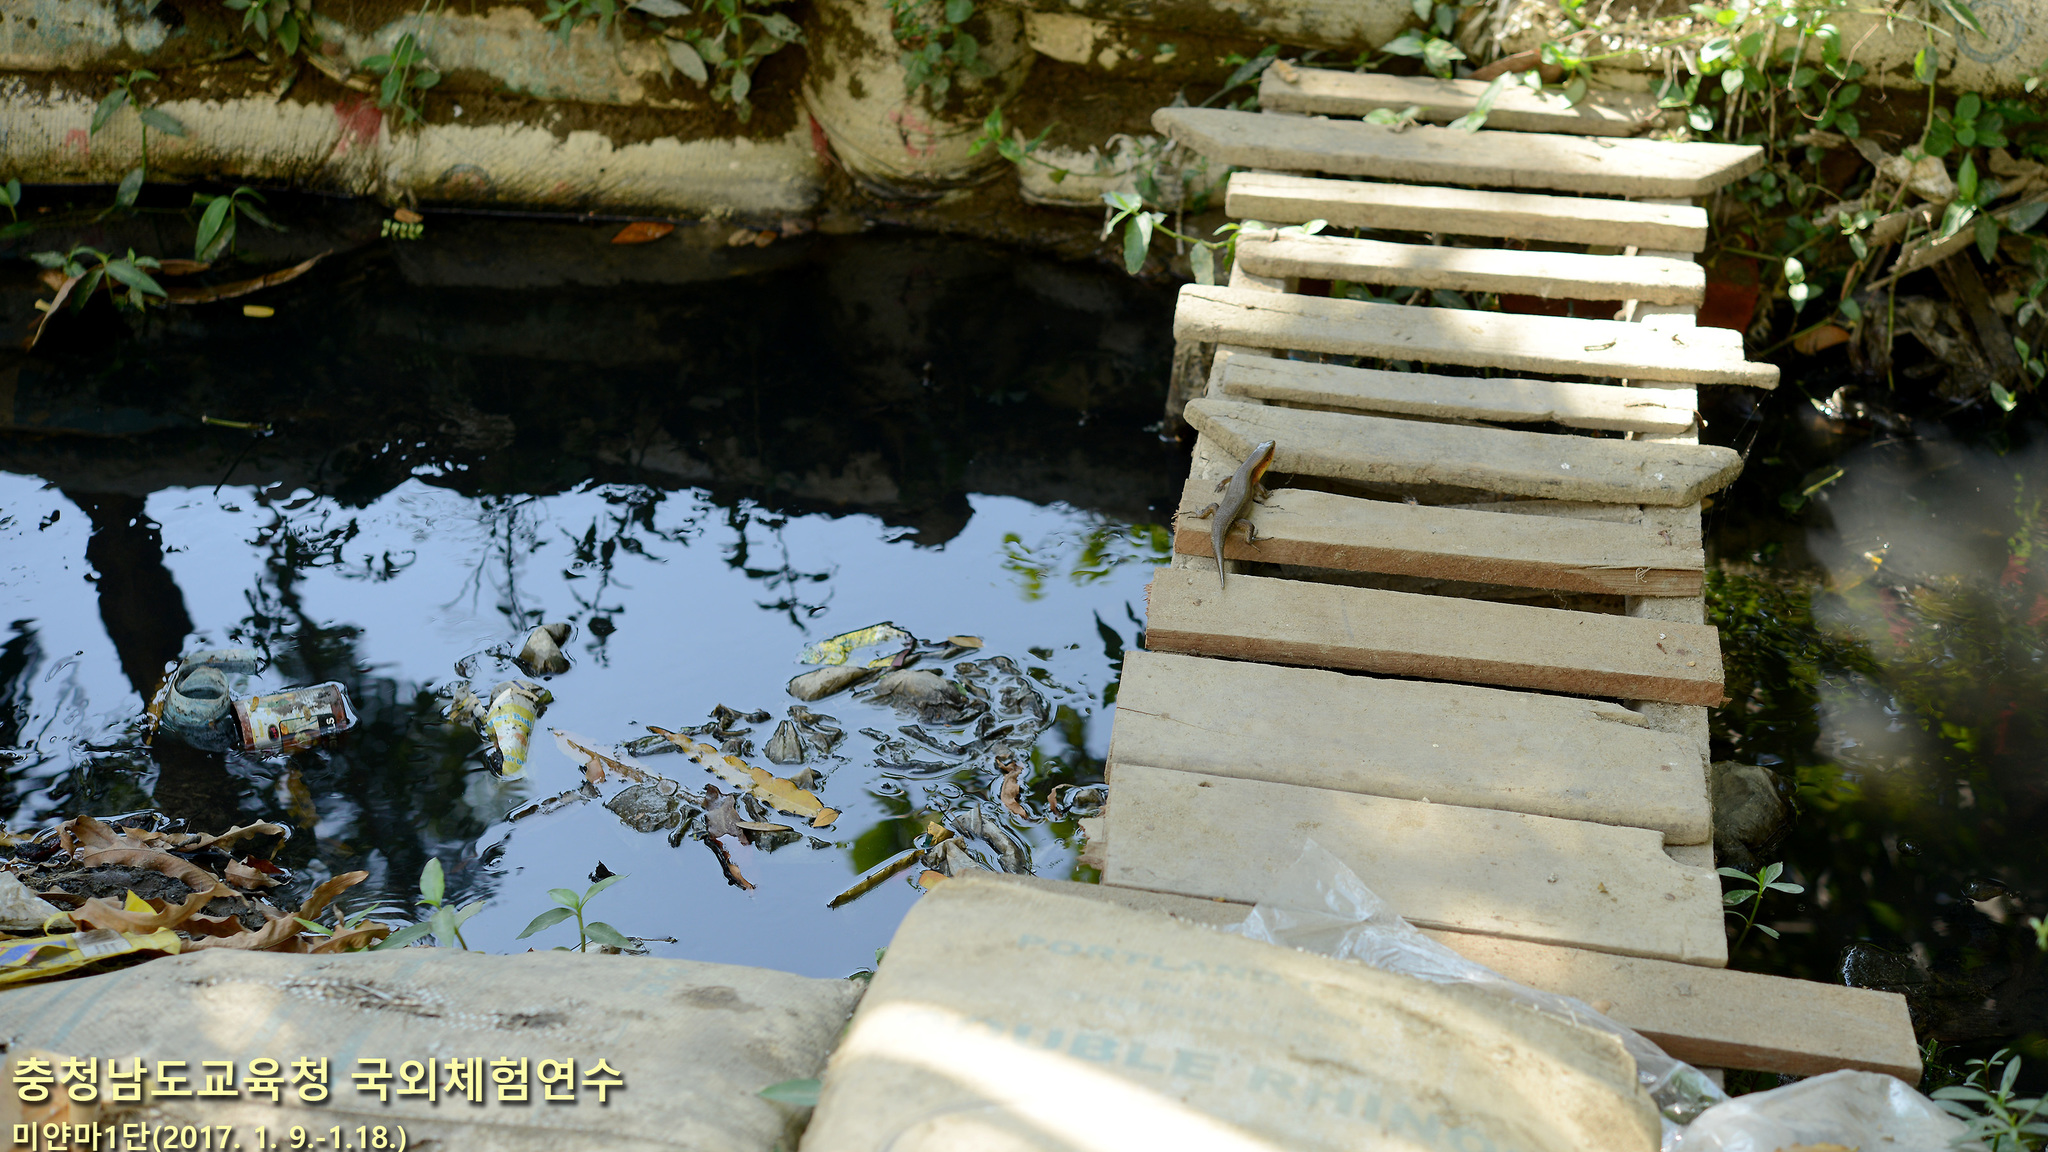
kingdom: Animalia
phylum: Chordata
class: Squamata
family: Scincidae
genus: Eutropis
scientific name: Eutropis multifasciata
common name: Common mabuya
